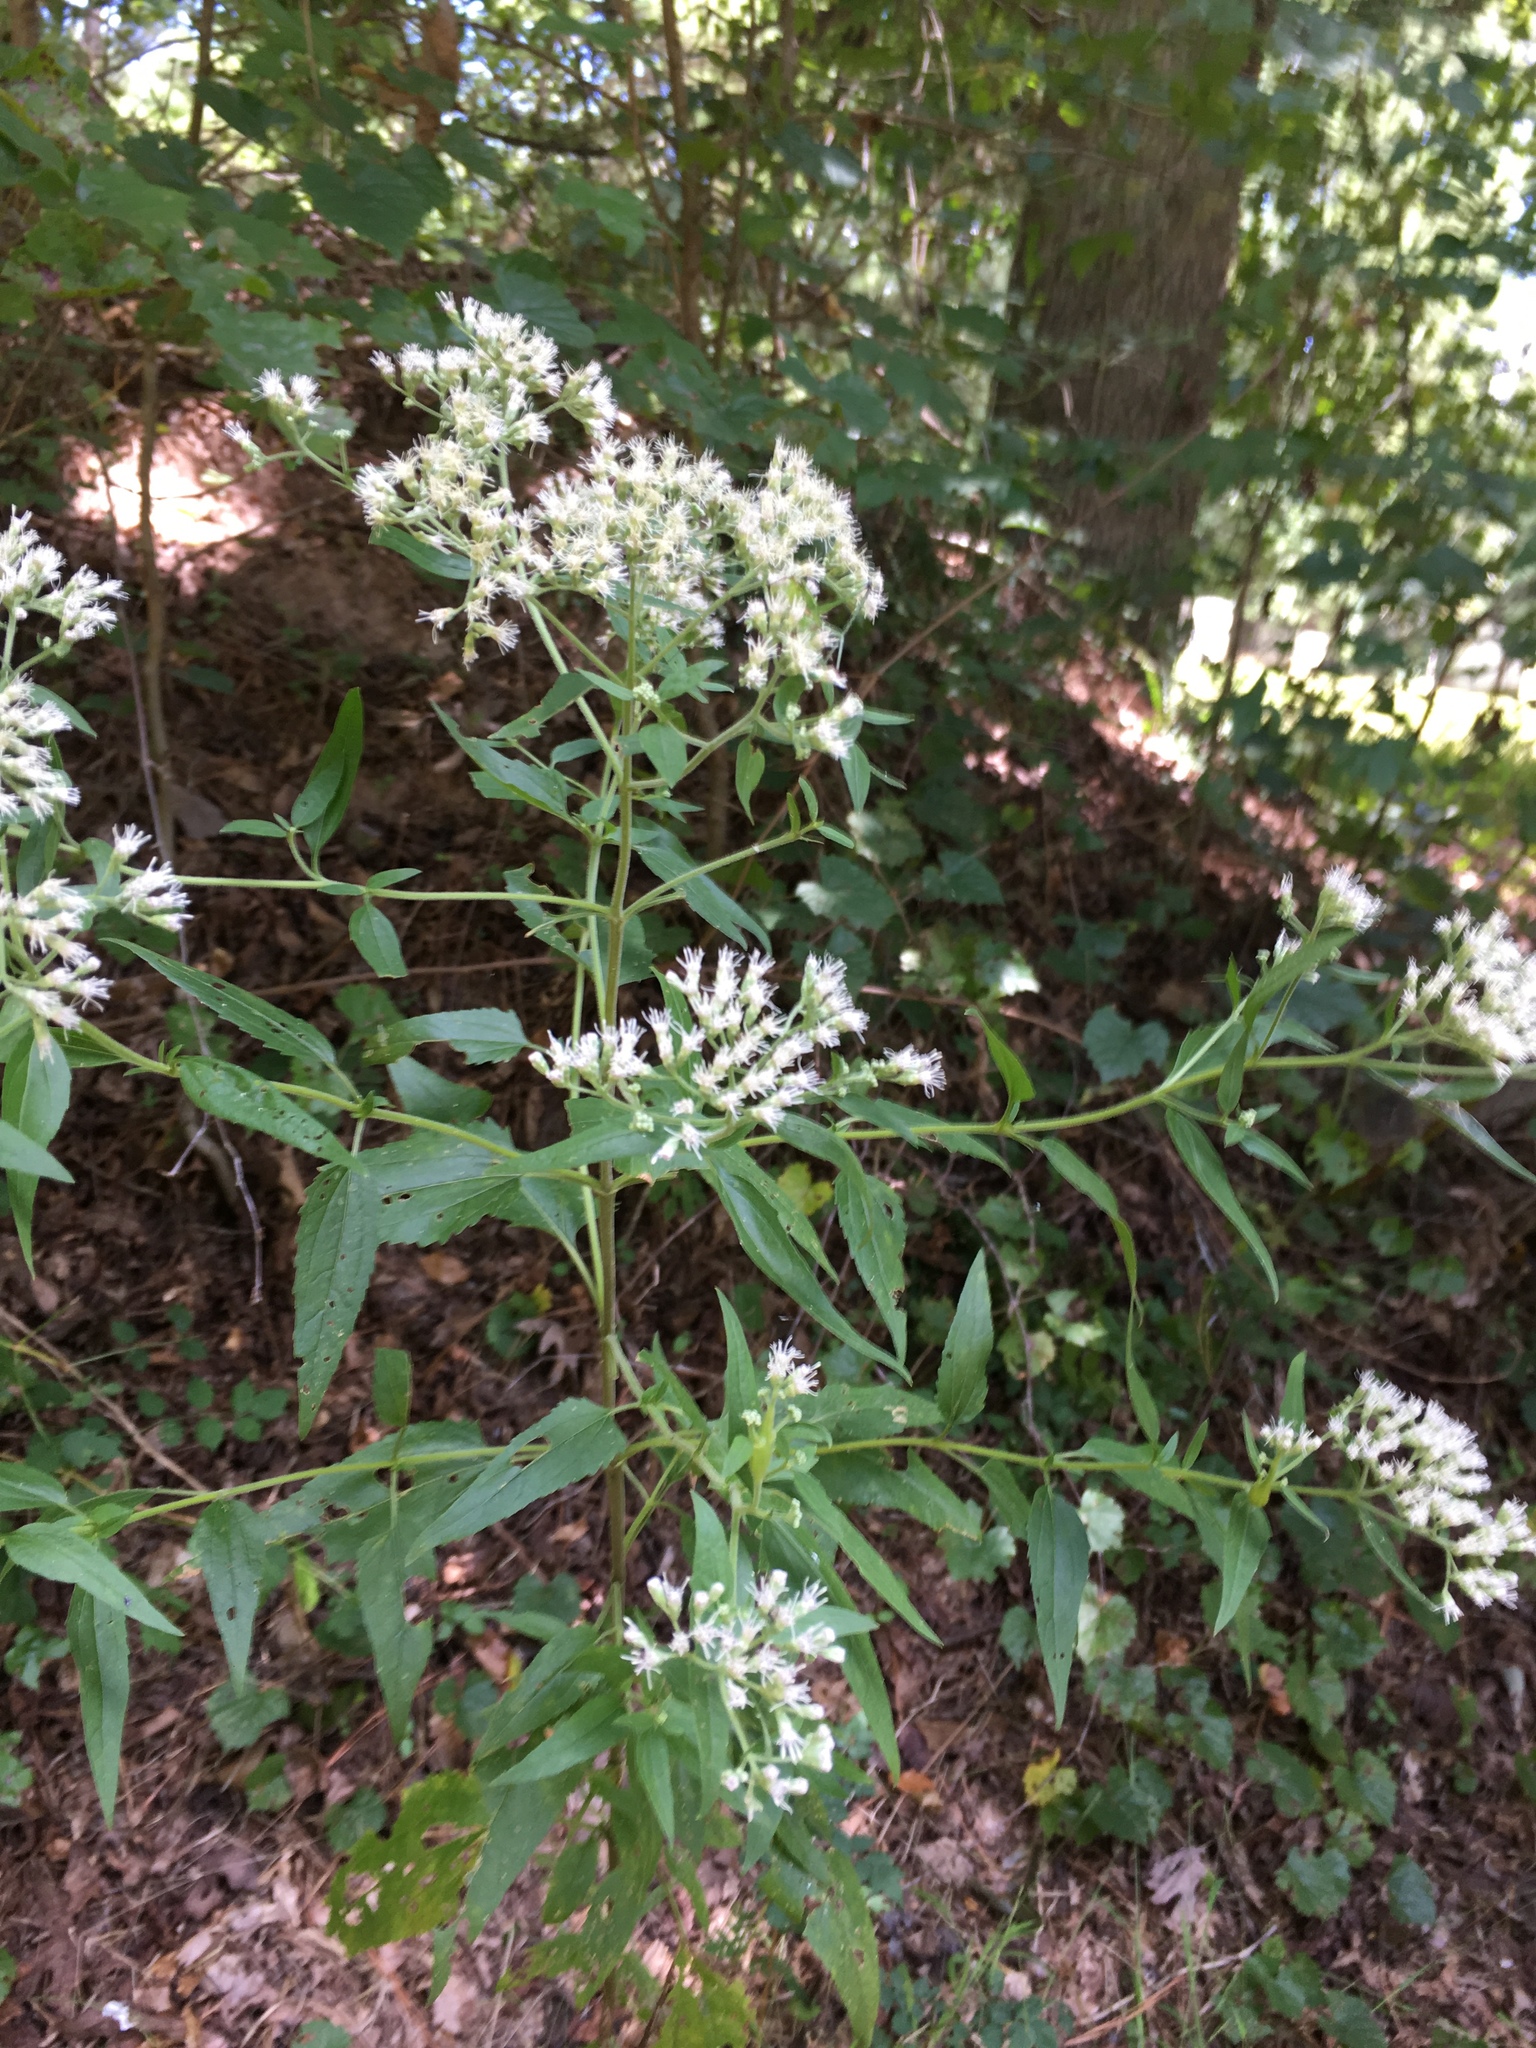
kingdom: Plantae
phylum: Tracheophyta
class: Magnoliopsida
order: Asterales
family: Asteraceae
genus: Eupatorium
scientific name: Eupatorium serotinum
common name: Late boneset
